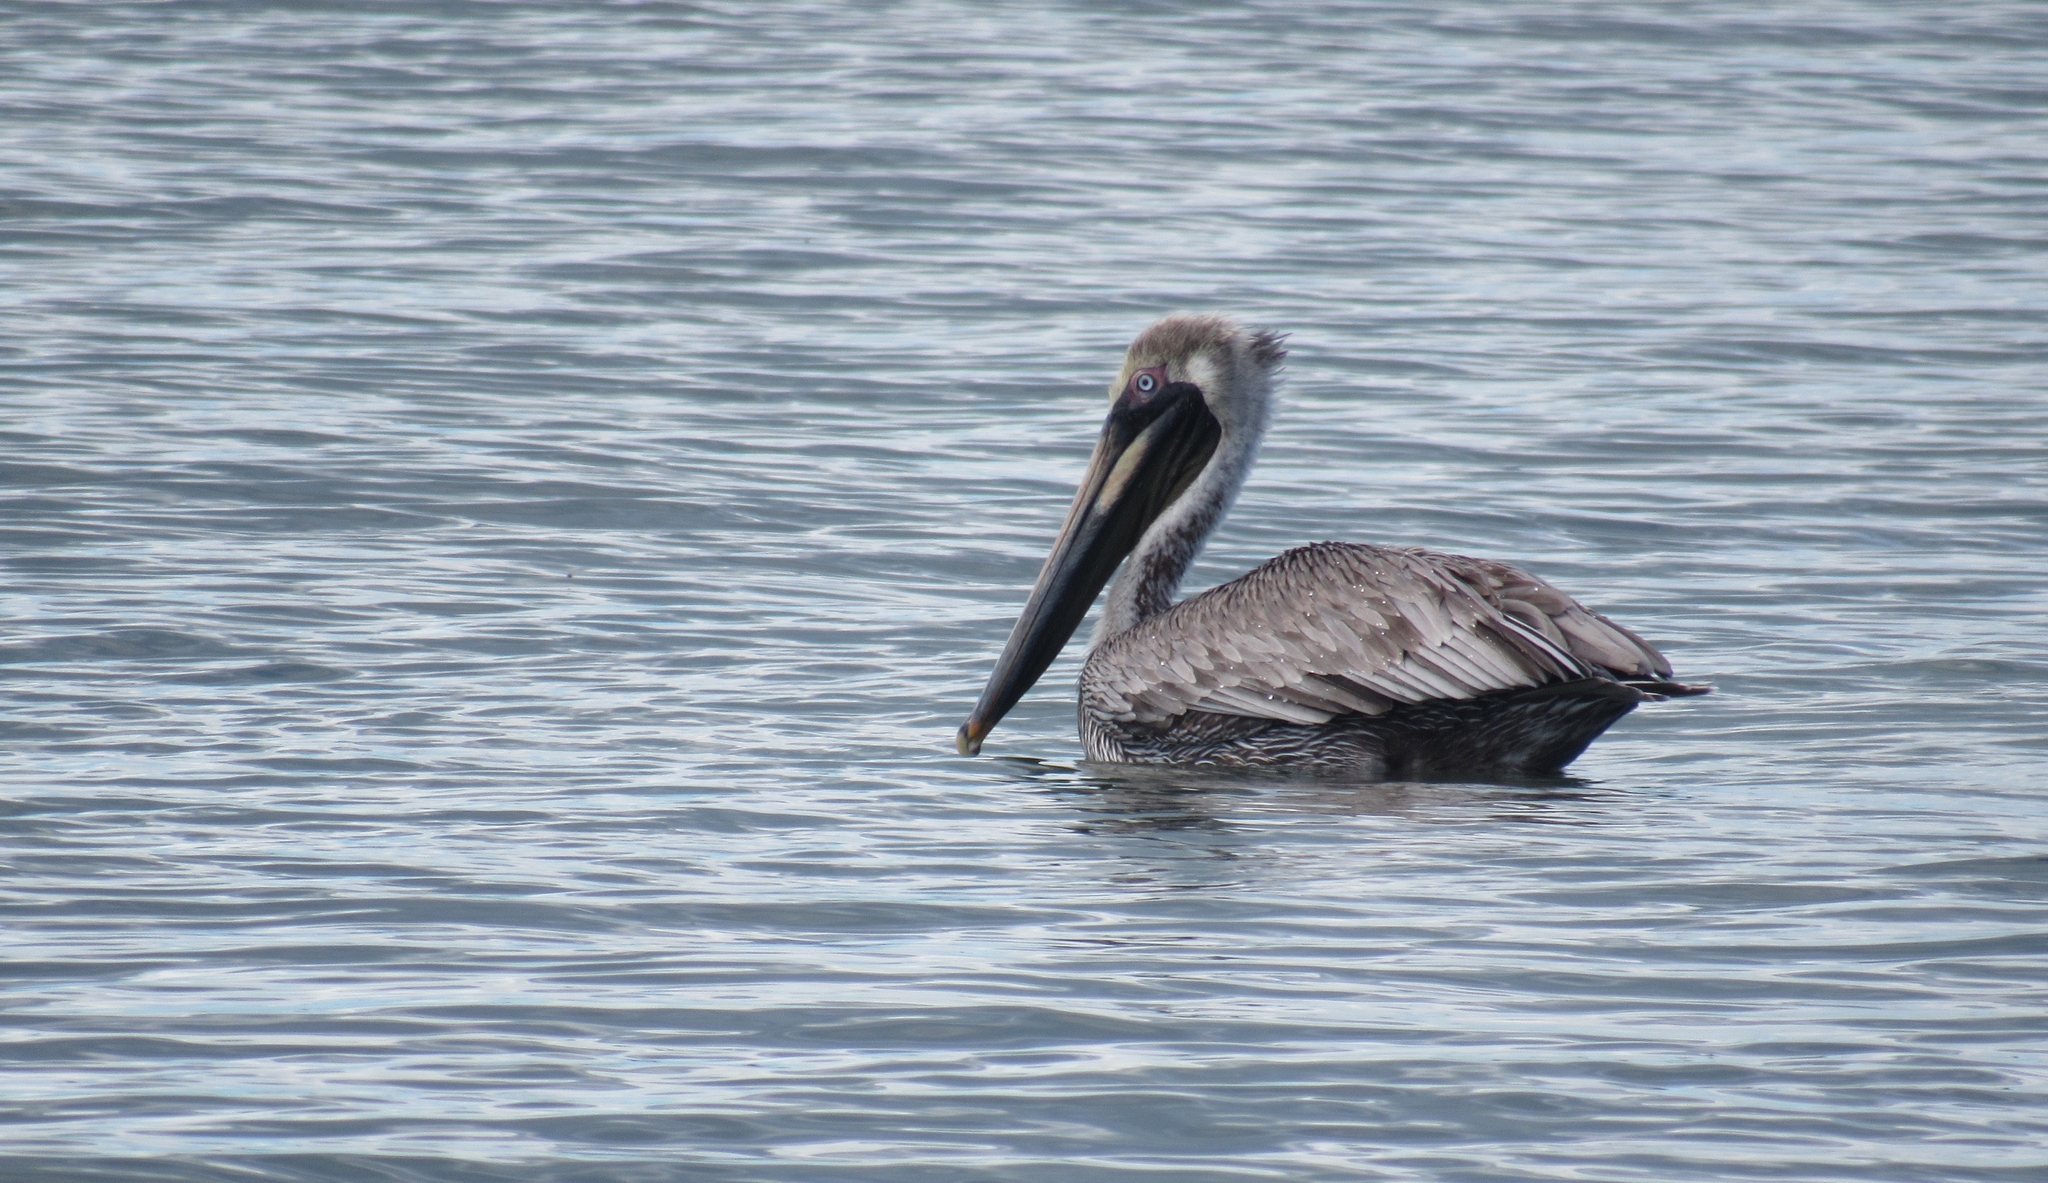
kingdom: Animalia
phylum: Chordata
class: Aves
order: Pelecaniformes
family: Pelecanidae
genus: Pelecanus
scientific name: Pelecanus occidentalis
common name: Brown pelican
